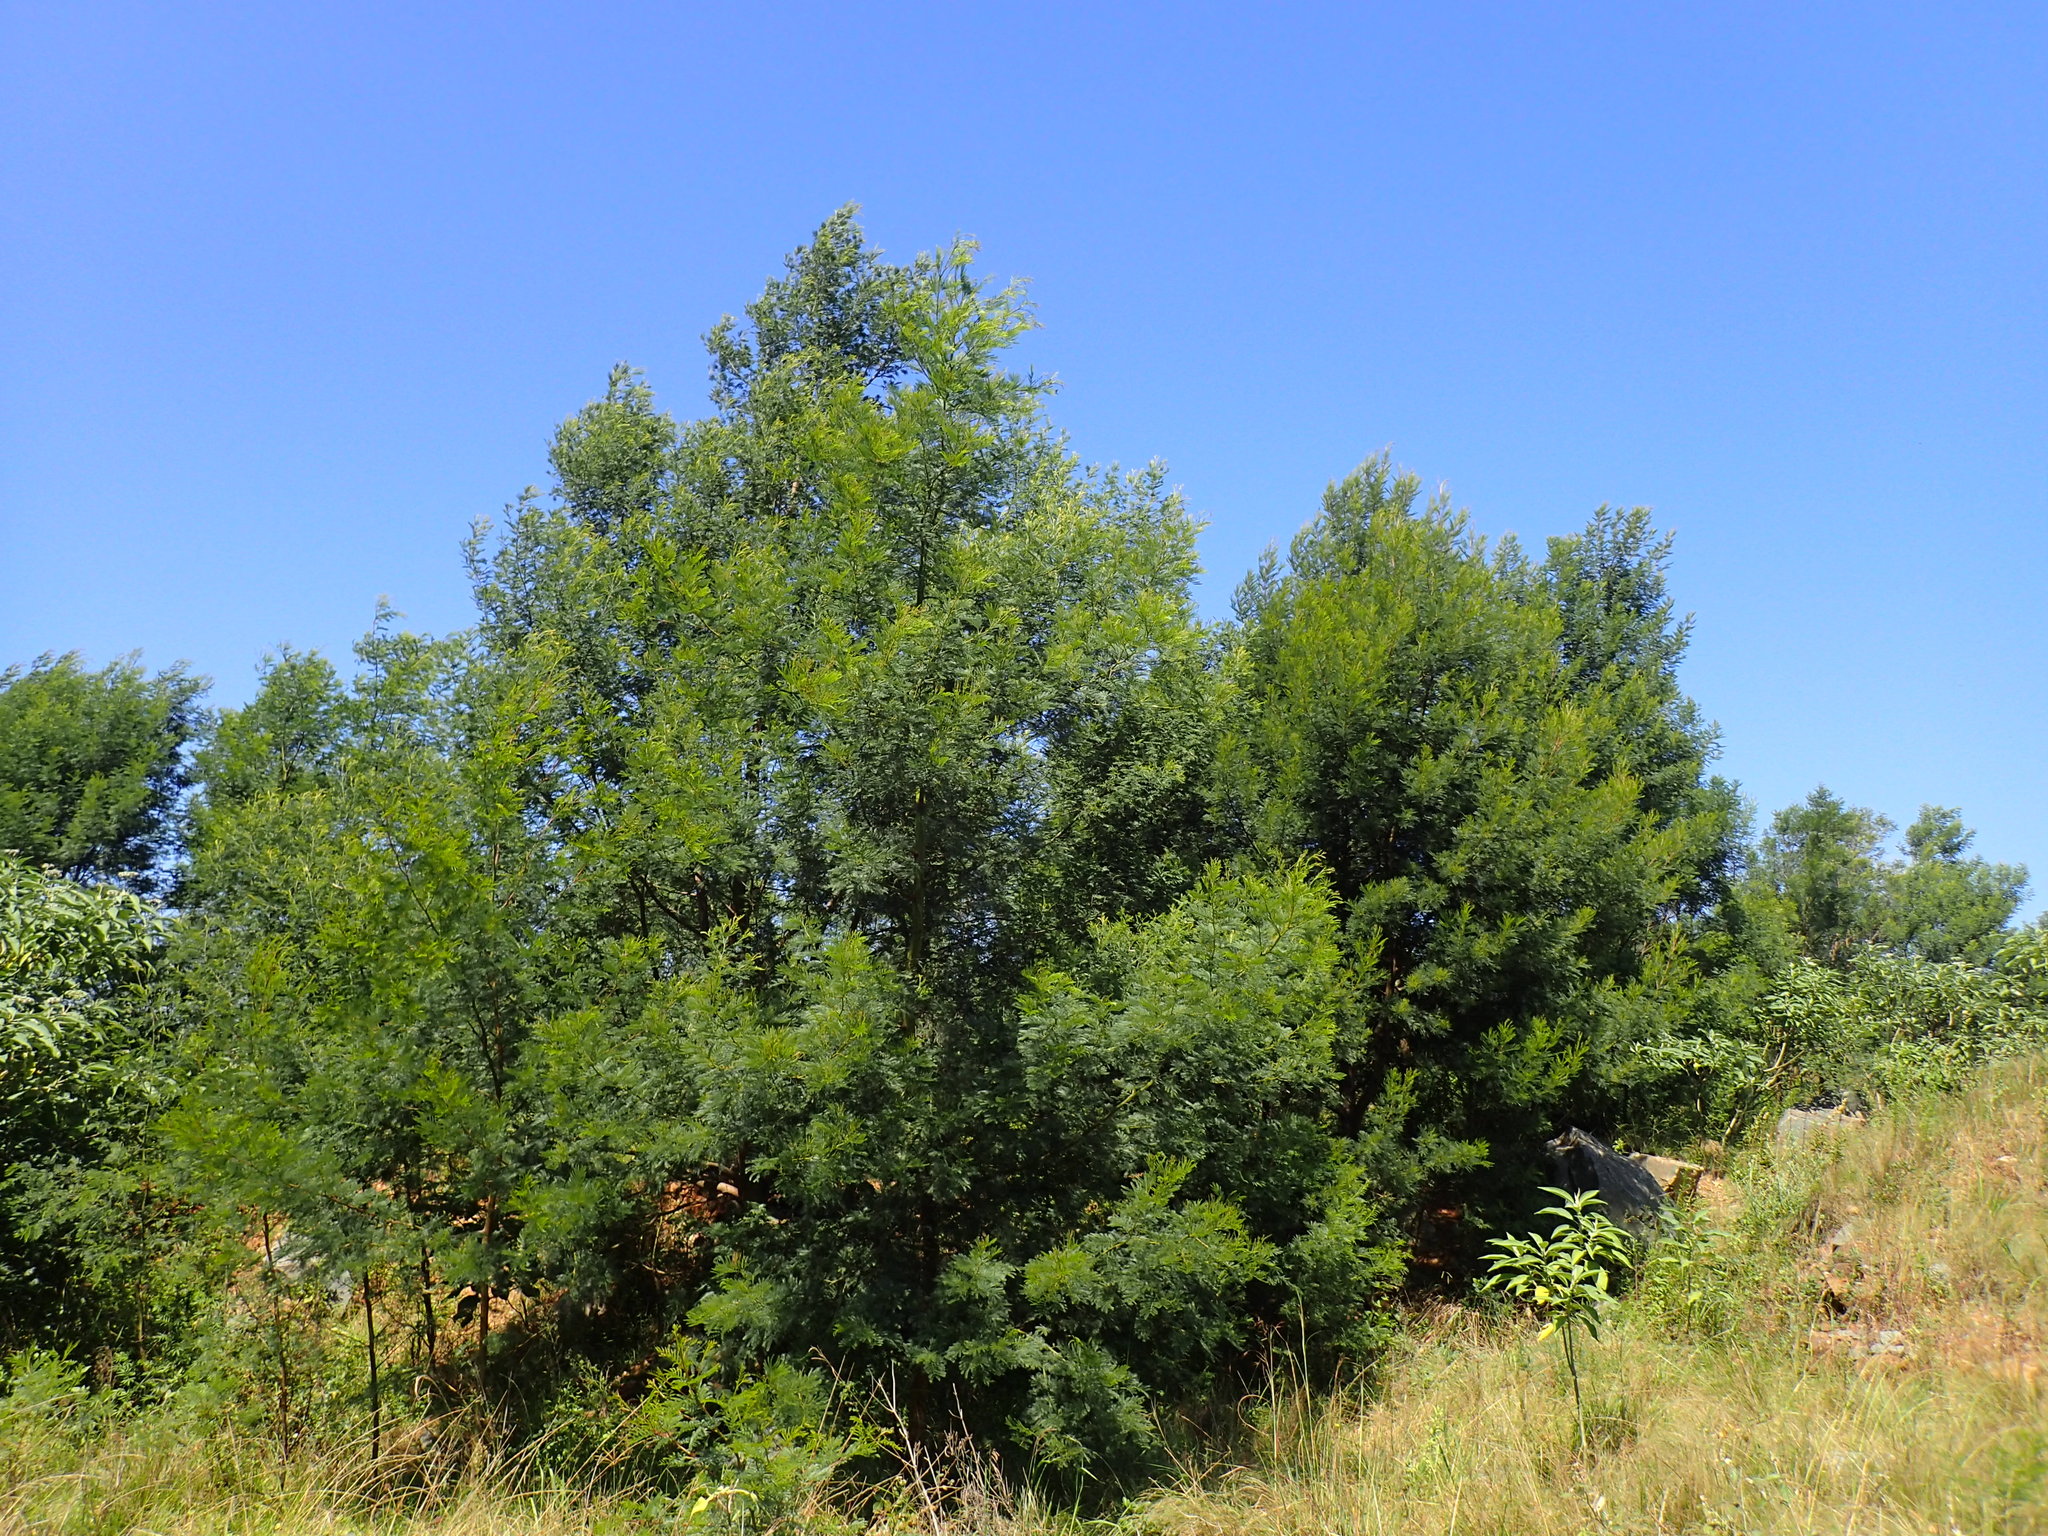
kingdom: Plantae
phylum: Tracheophyta
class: Magnoliopsida
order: Fabales
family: Fabaceae
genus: Acacia
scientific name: Acacia decurrens
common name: Green wattle
